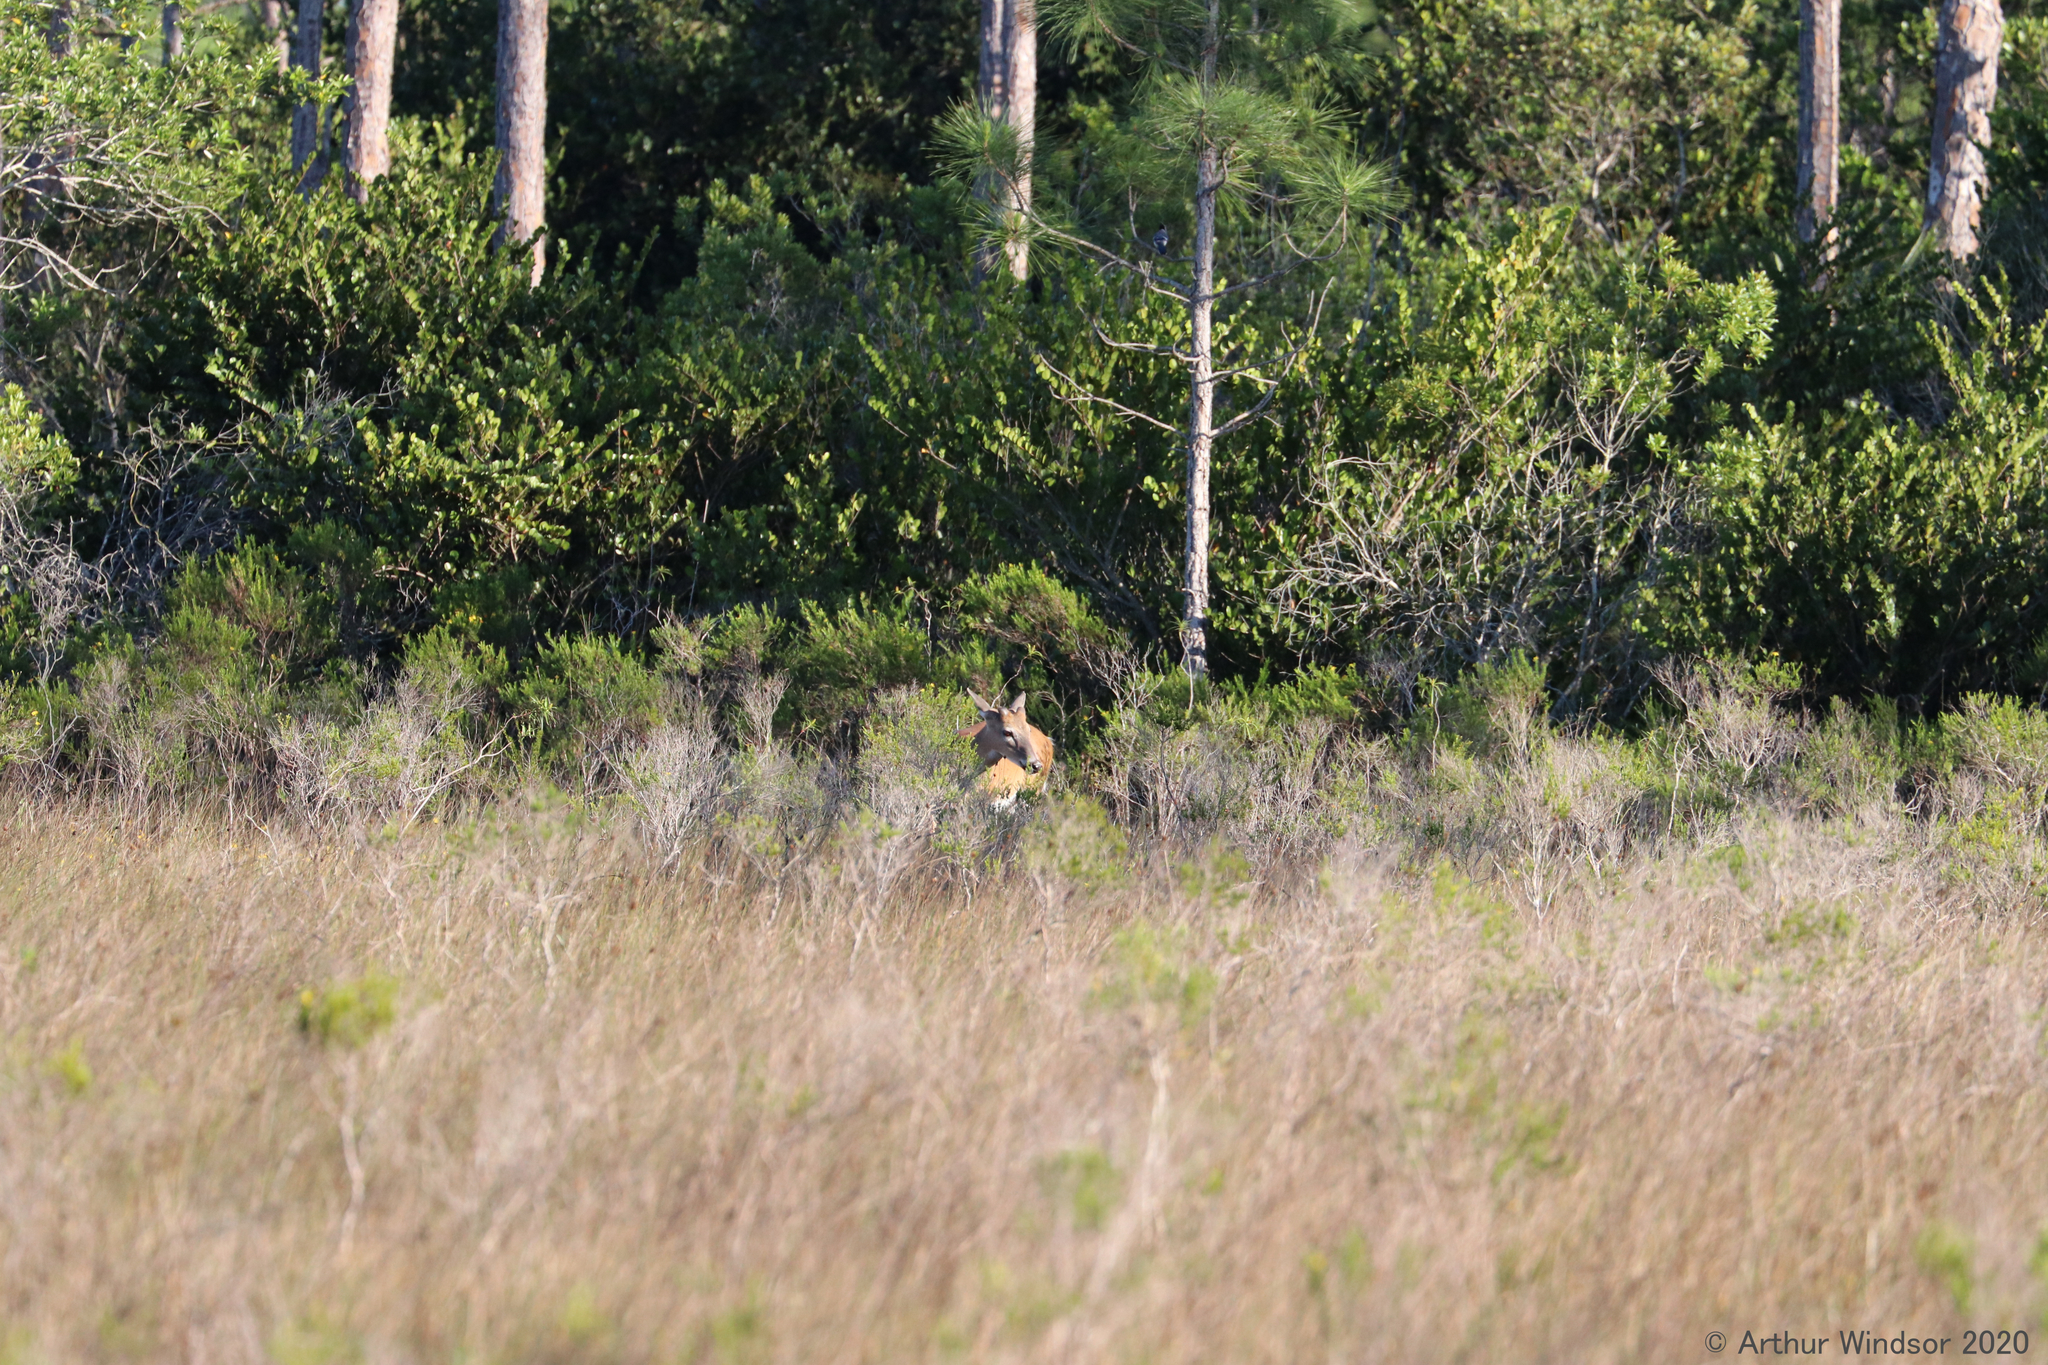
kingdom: Animalia
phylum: Chordata
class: Mammalia
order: Artiodactyla
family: Cervidae
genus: Odocoileus
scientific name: Odocoileus virginianus
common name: White-tailed deer
